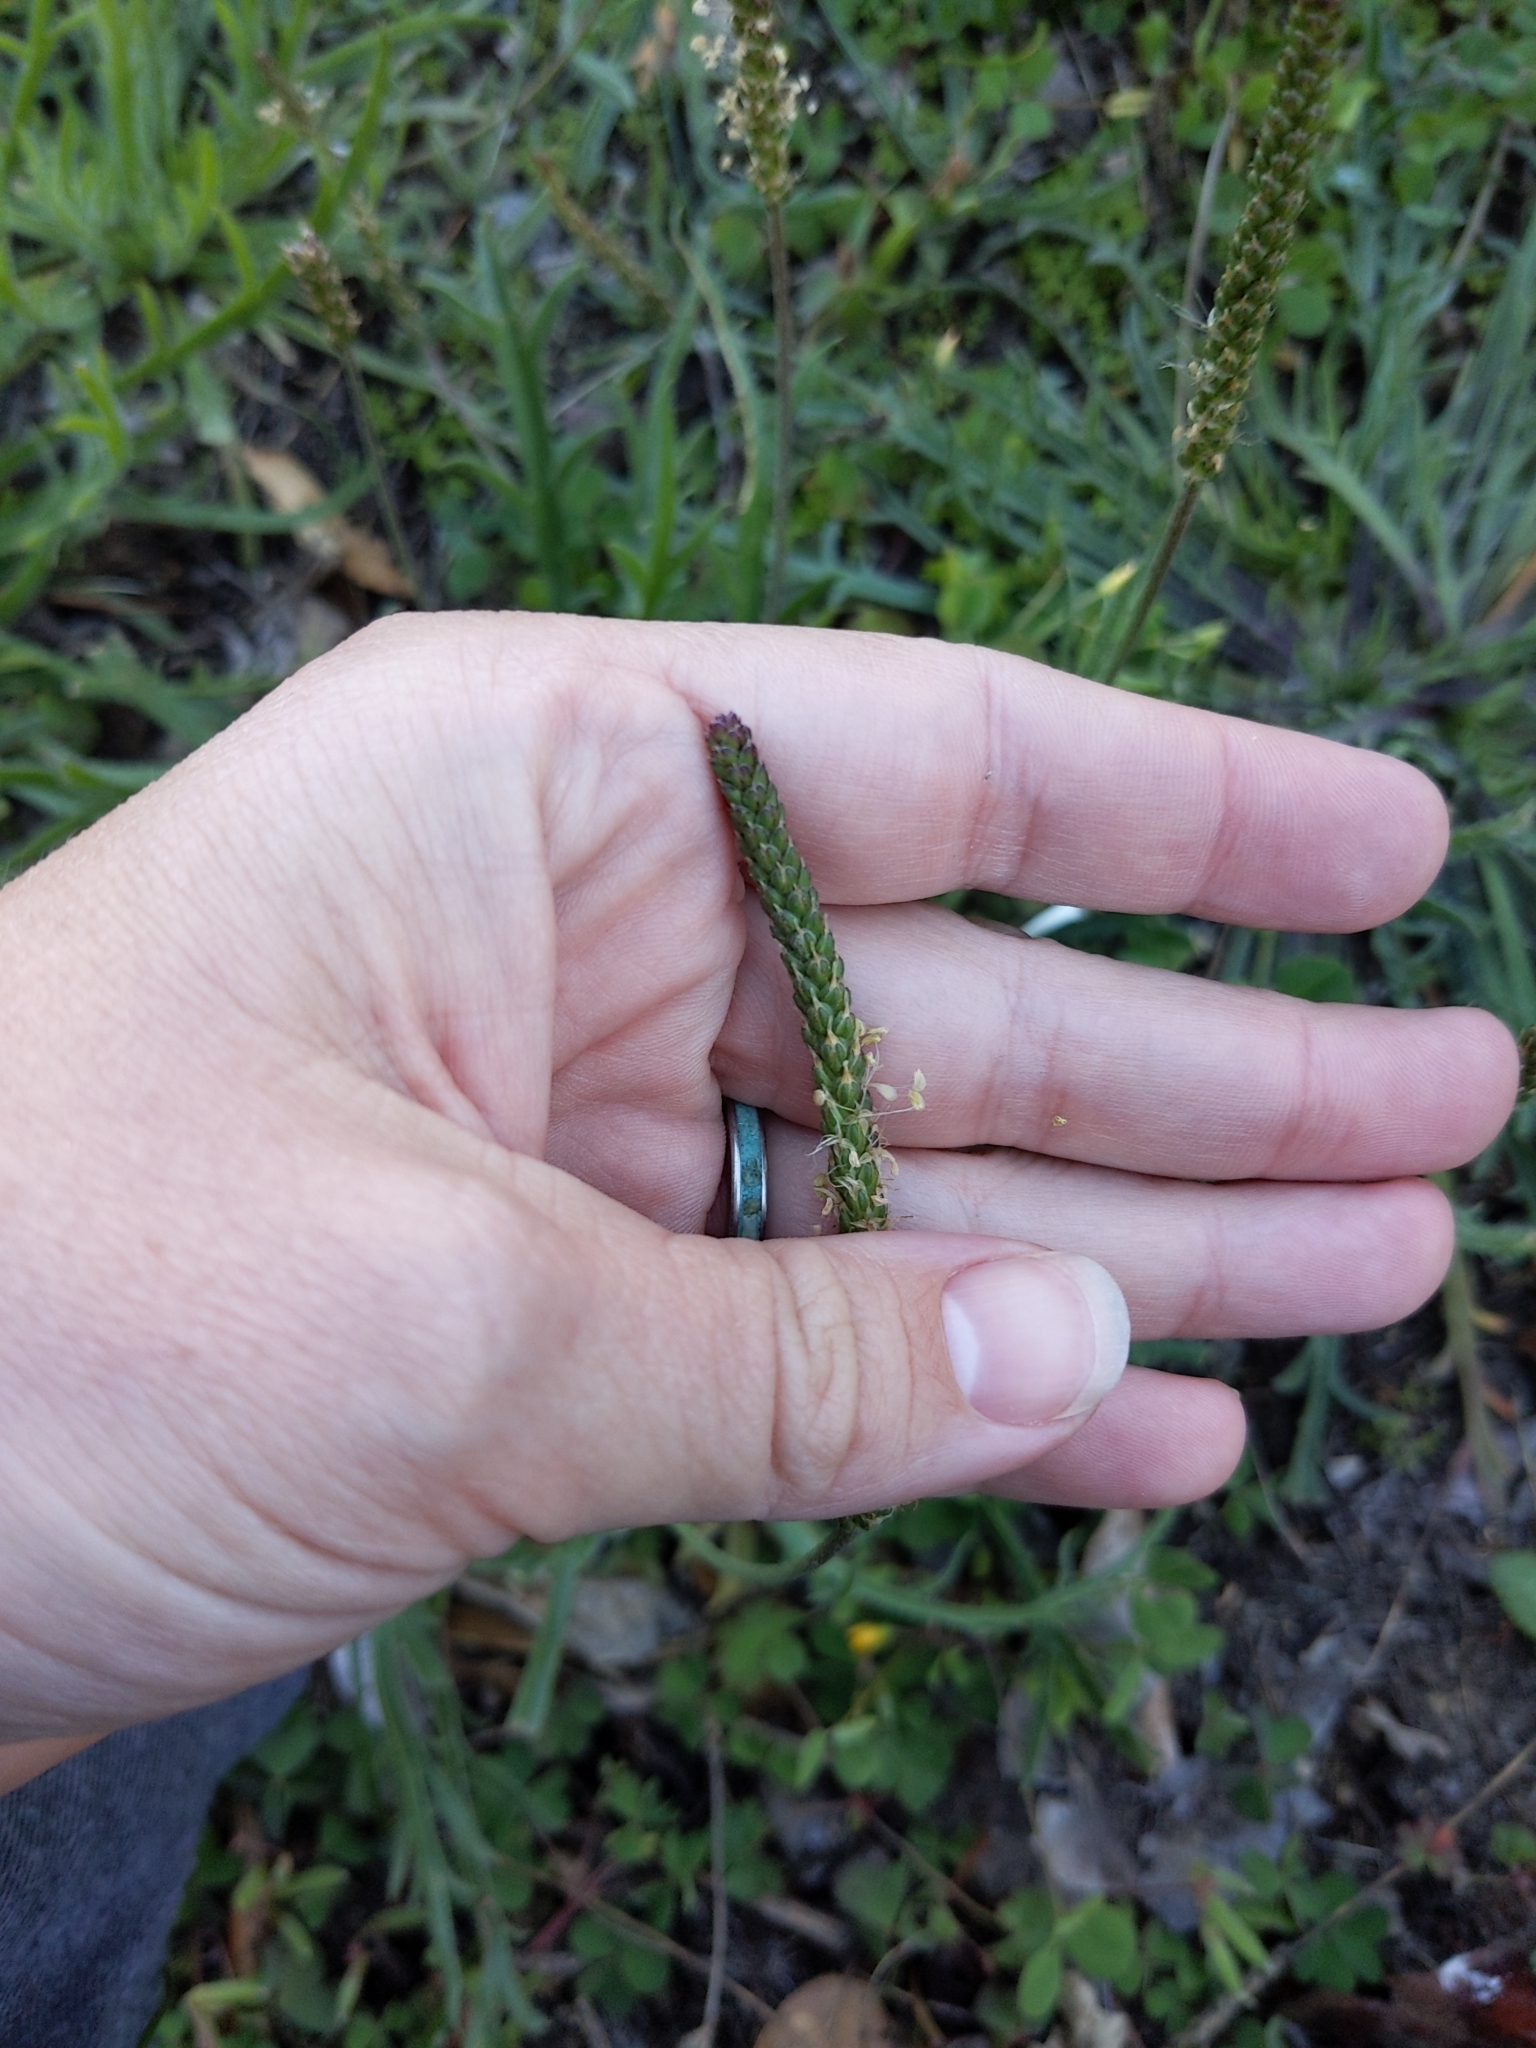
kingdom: Plantae
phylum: Tracheophyta
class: Magnoliopsida
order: Lamiales
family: Plantaginaceae
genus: Plantago
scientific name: Plantago coronopus
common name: Buck's-horn plantain
